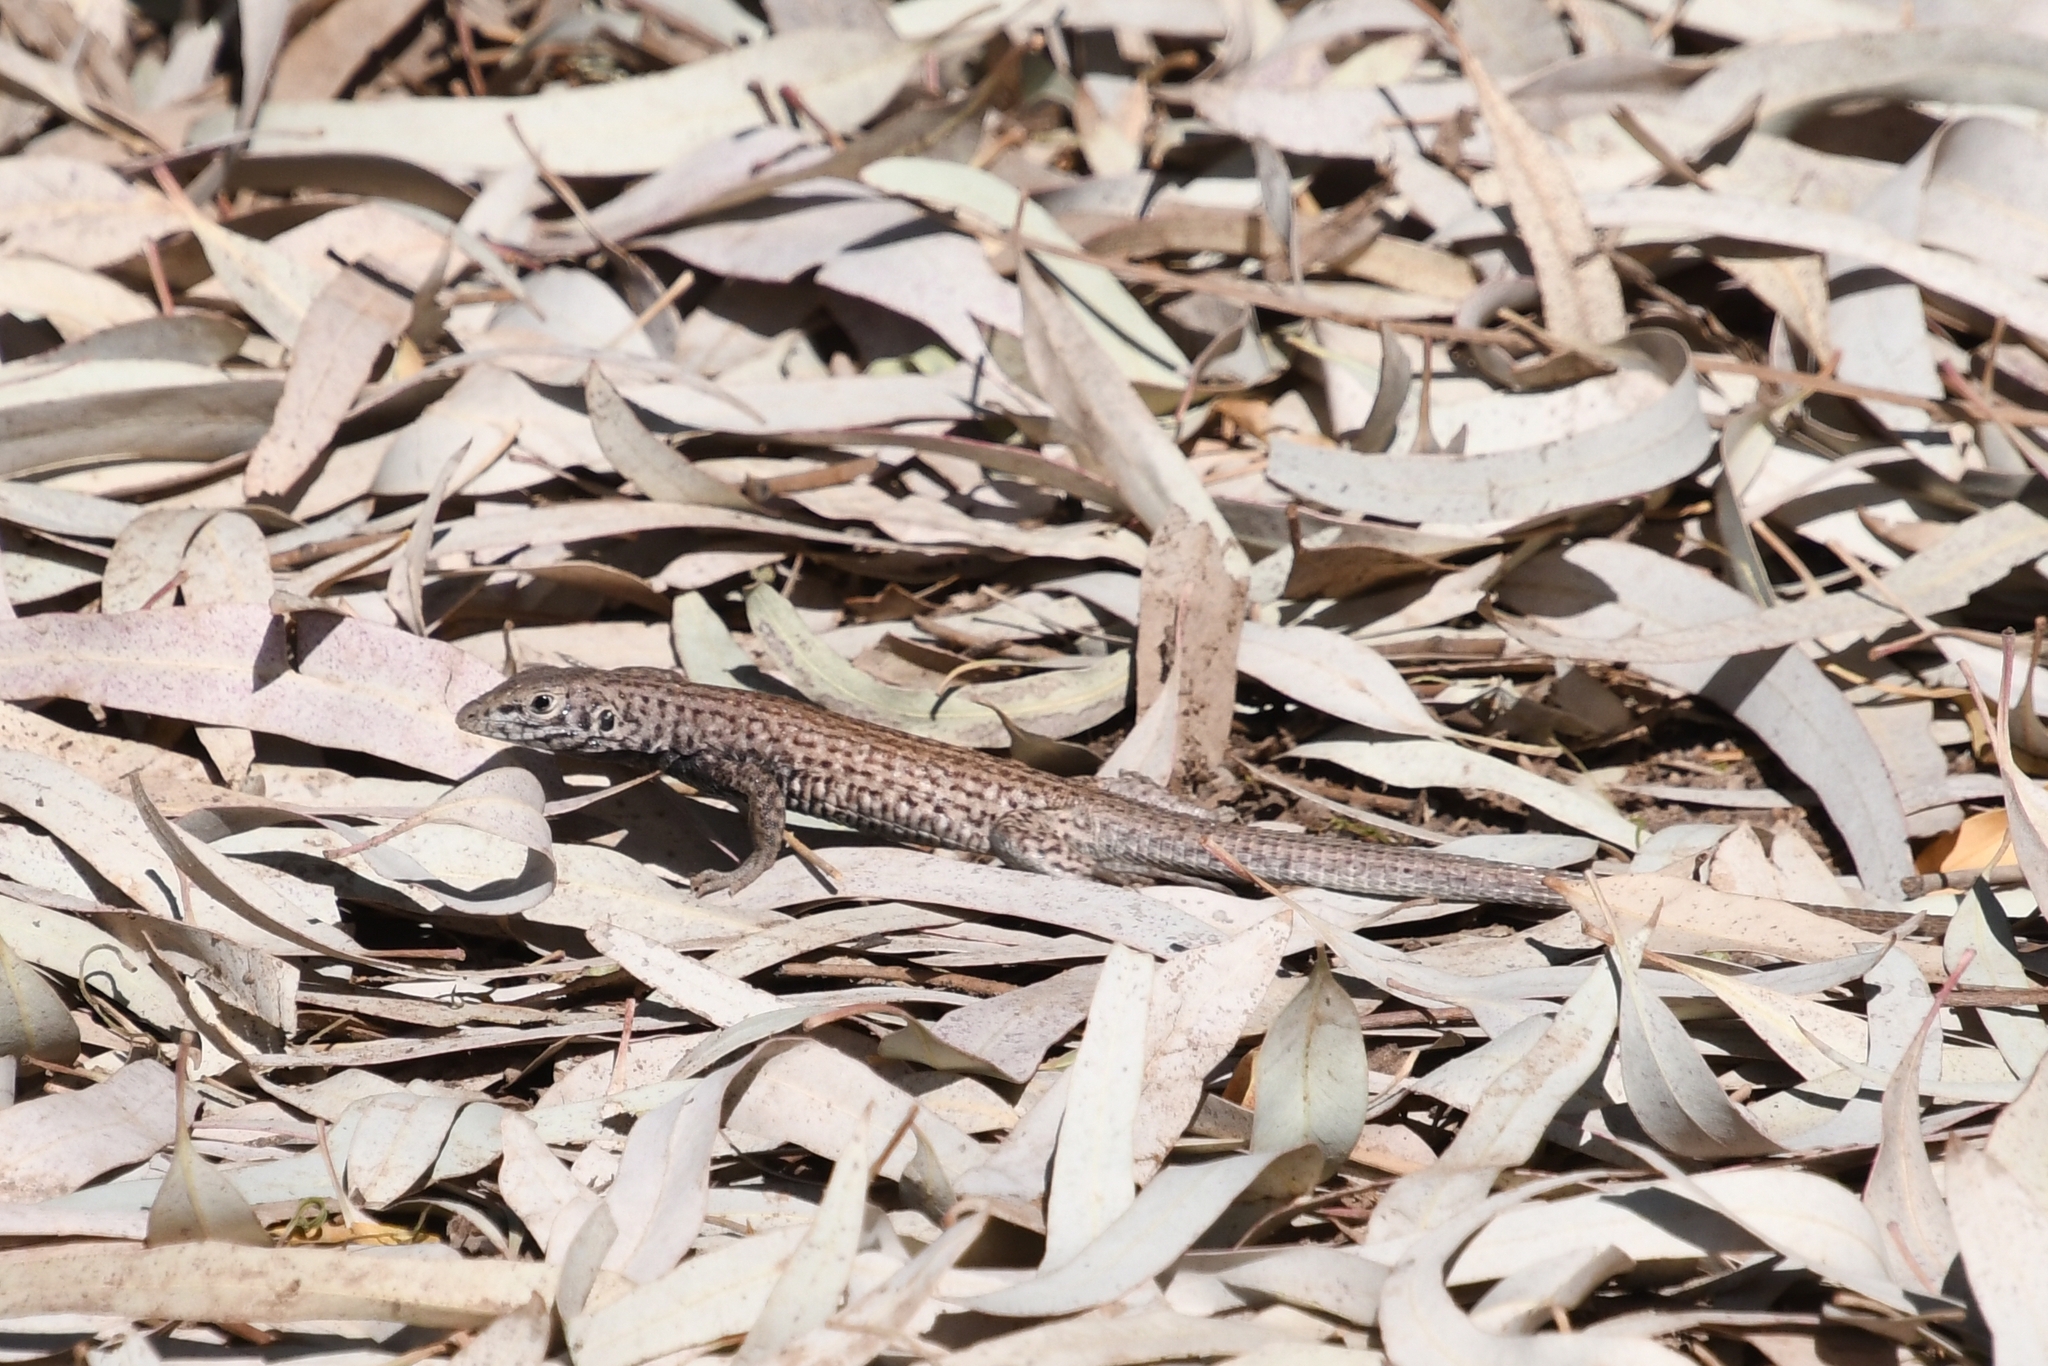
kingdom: Animalia
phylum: Chordata
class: Squamata
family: Teiidae
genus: Aspidoscelis
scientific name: Aspidoscelis tigris
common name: Tiger whiptail
